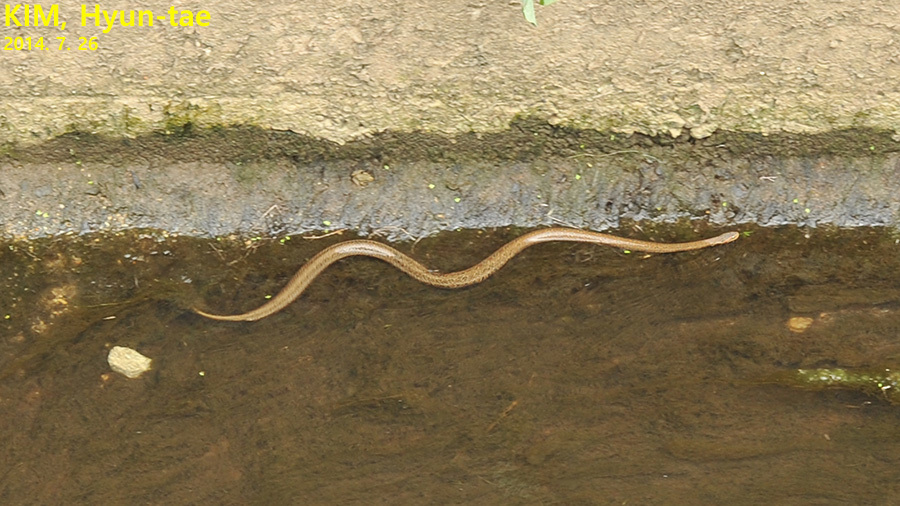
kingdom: Animalia
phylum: Chordata
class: Squamata
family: Colubridae
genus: Oocatochus
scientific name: Oocatochus rufodorsatus
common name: Frog-eating rat snake
